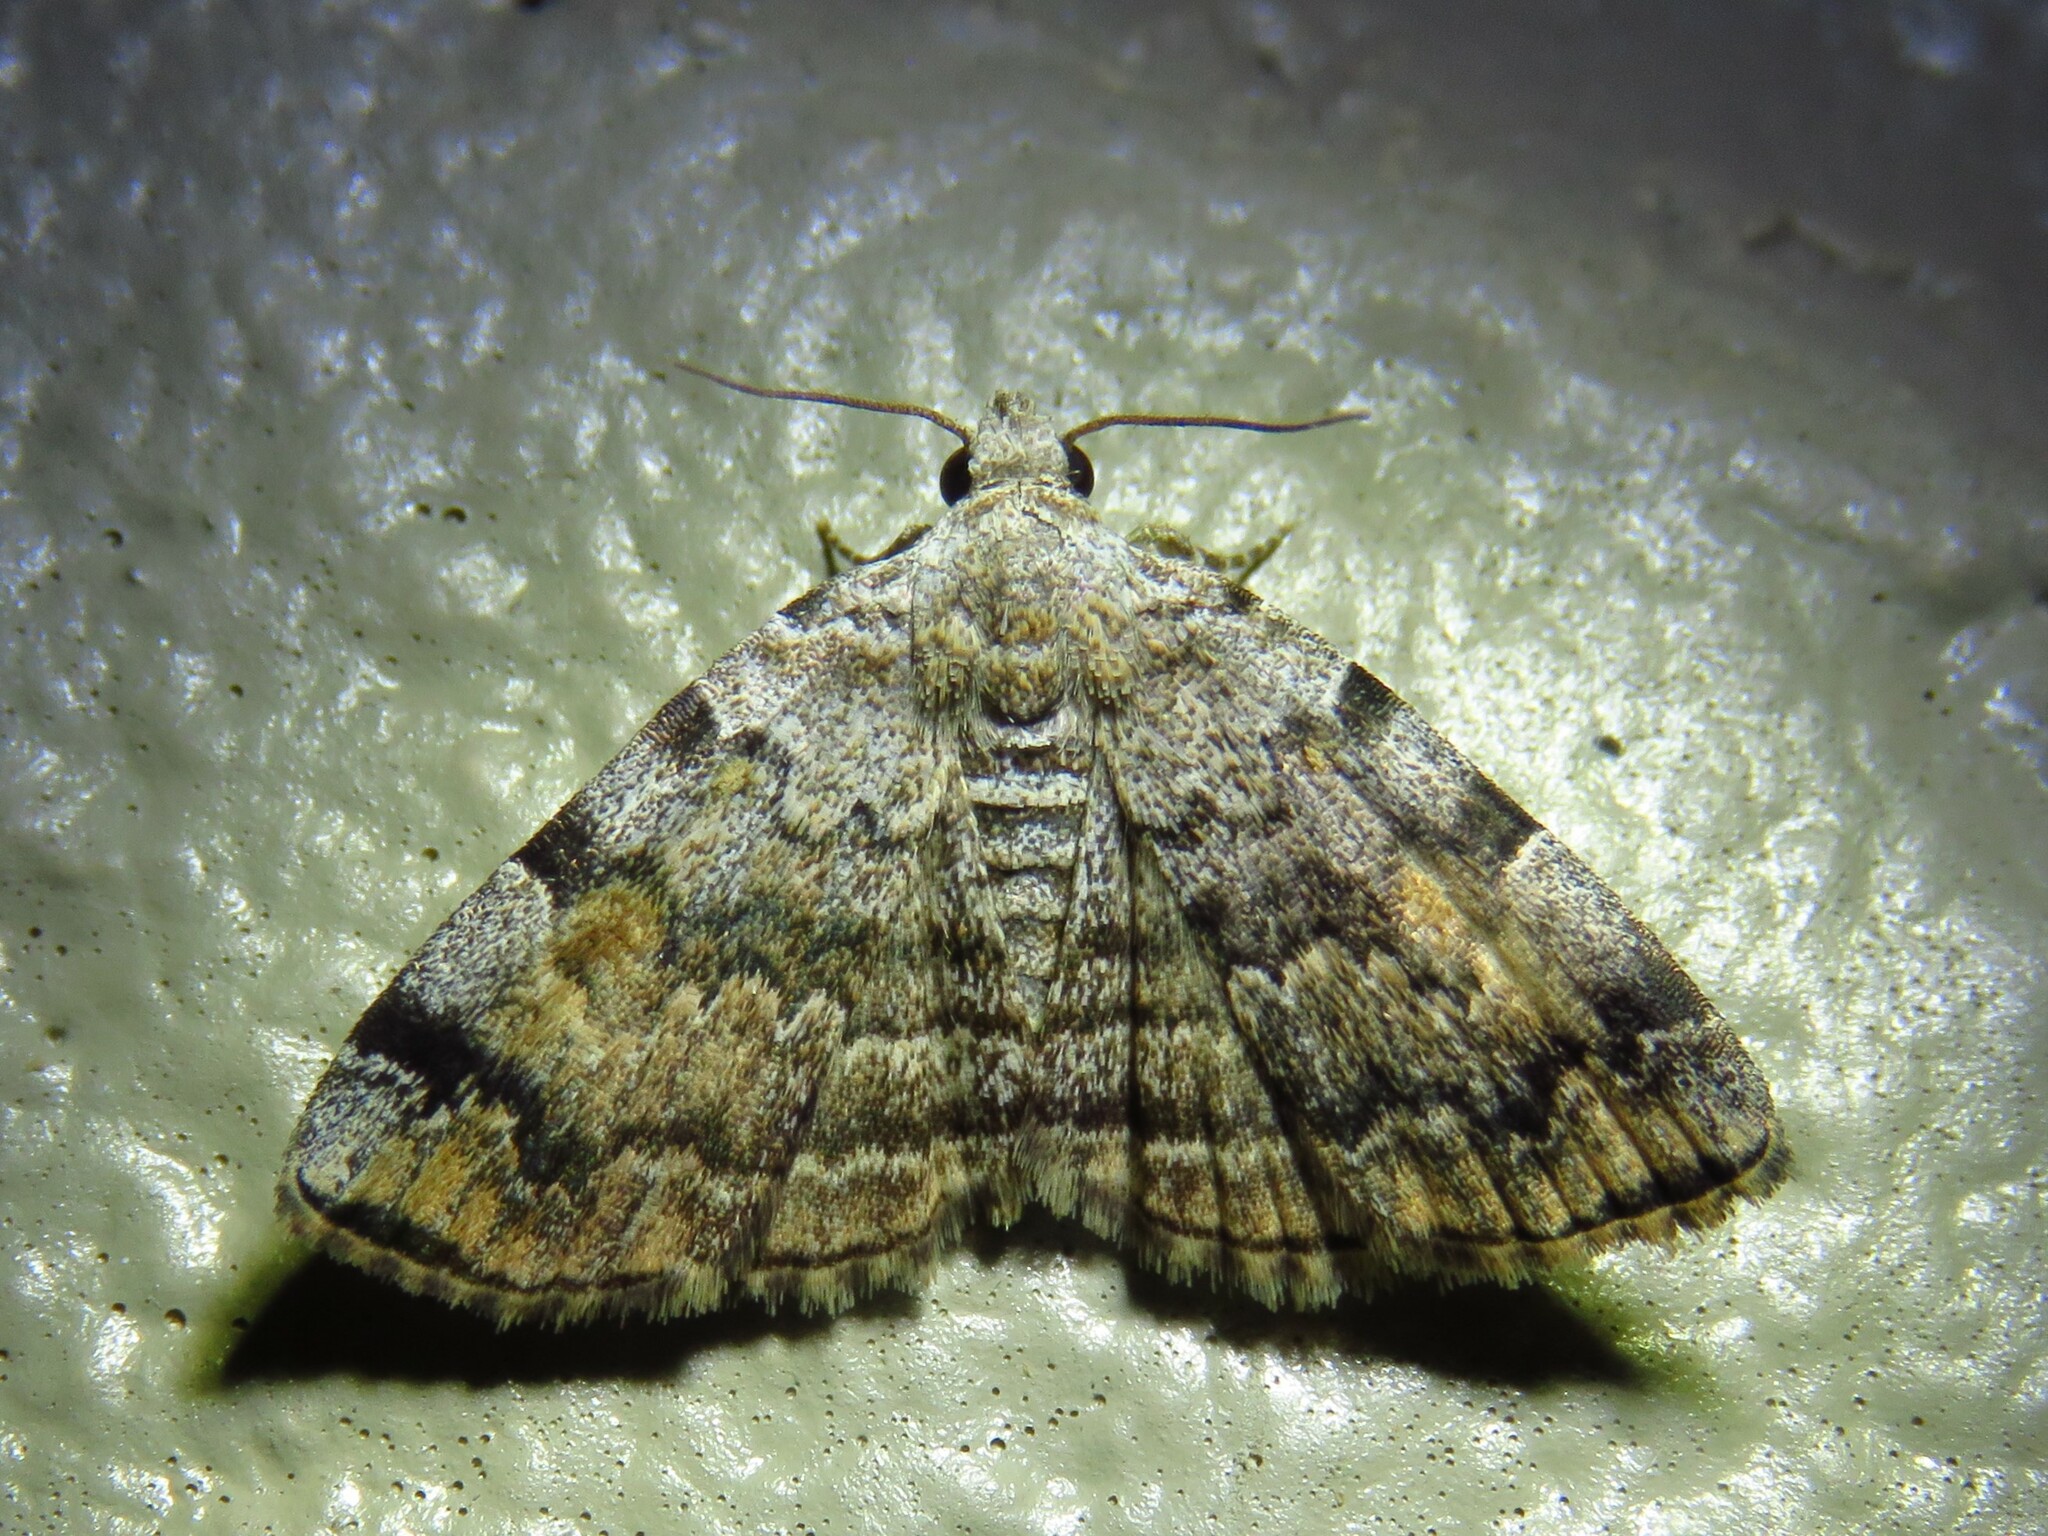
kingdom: Animalia
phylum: Arthropoda
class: Insecta
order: Lepidoptera
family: Erebidae
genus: Idia
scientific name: Idia americalis
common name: American idia moth
